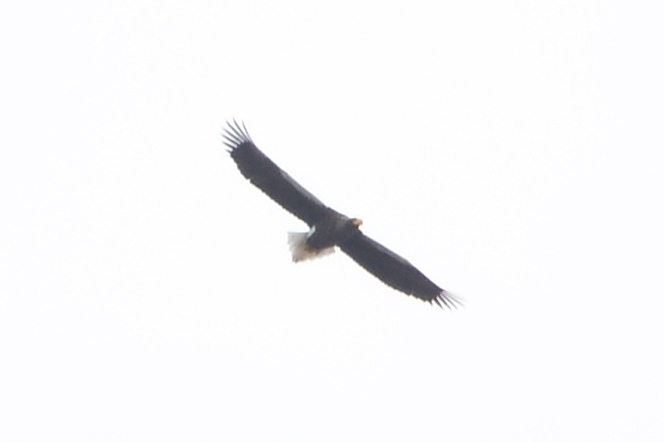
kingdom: Animalia
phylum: Chordata
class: Aves
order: Accipitriformes
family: Accipitridae
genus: Haliaeetus
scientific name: Haliaeetus pelagicus
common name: Steller's sea eagle
